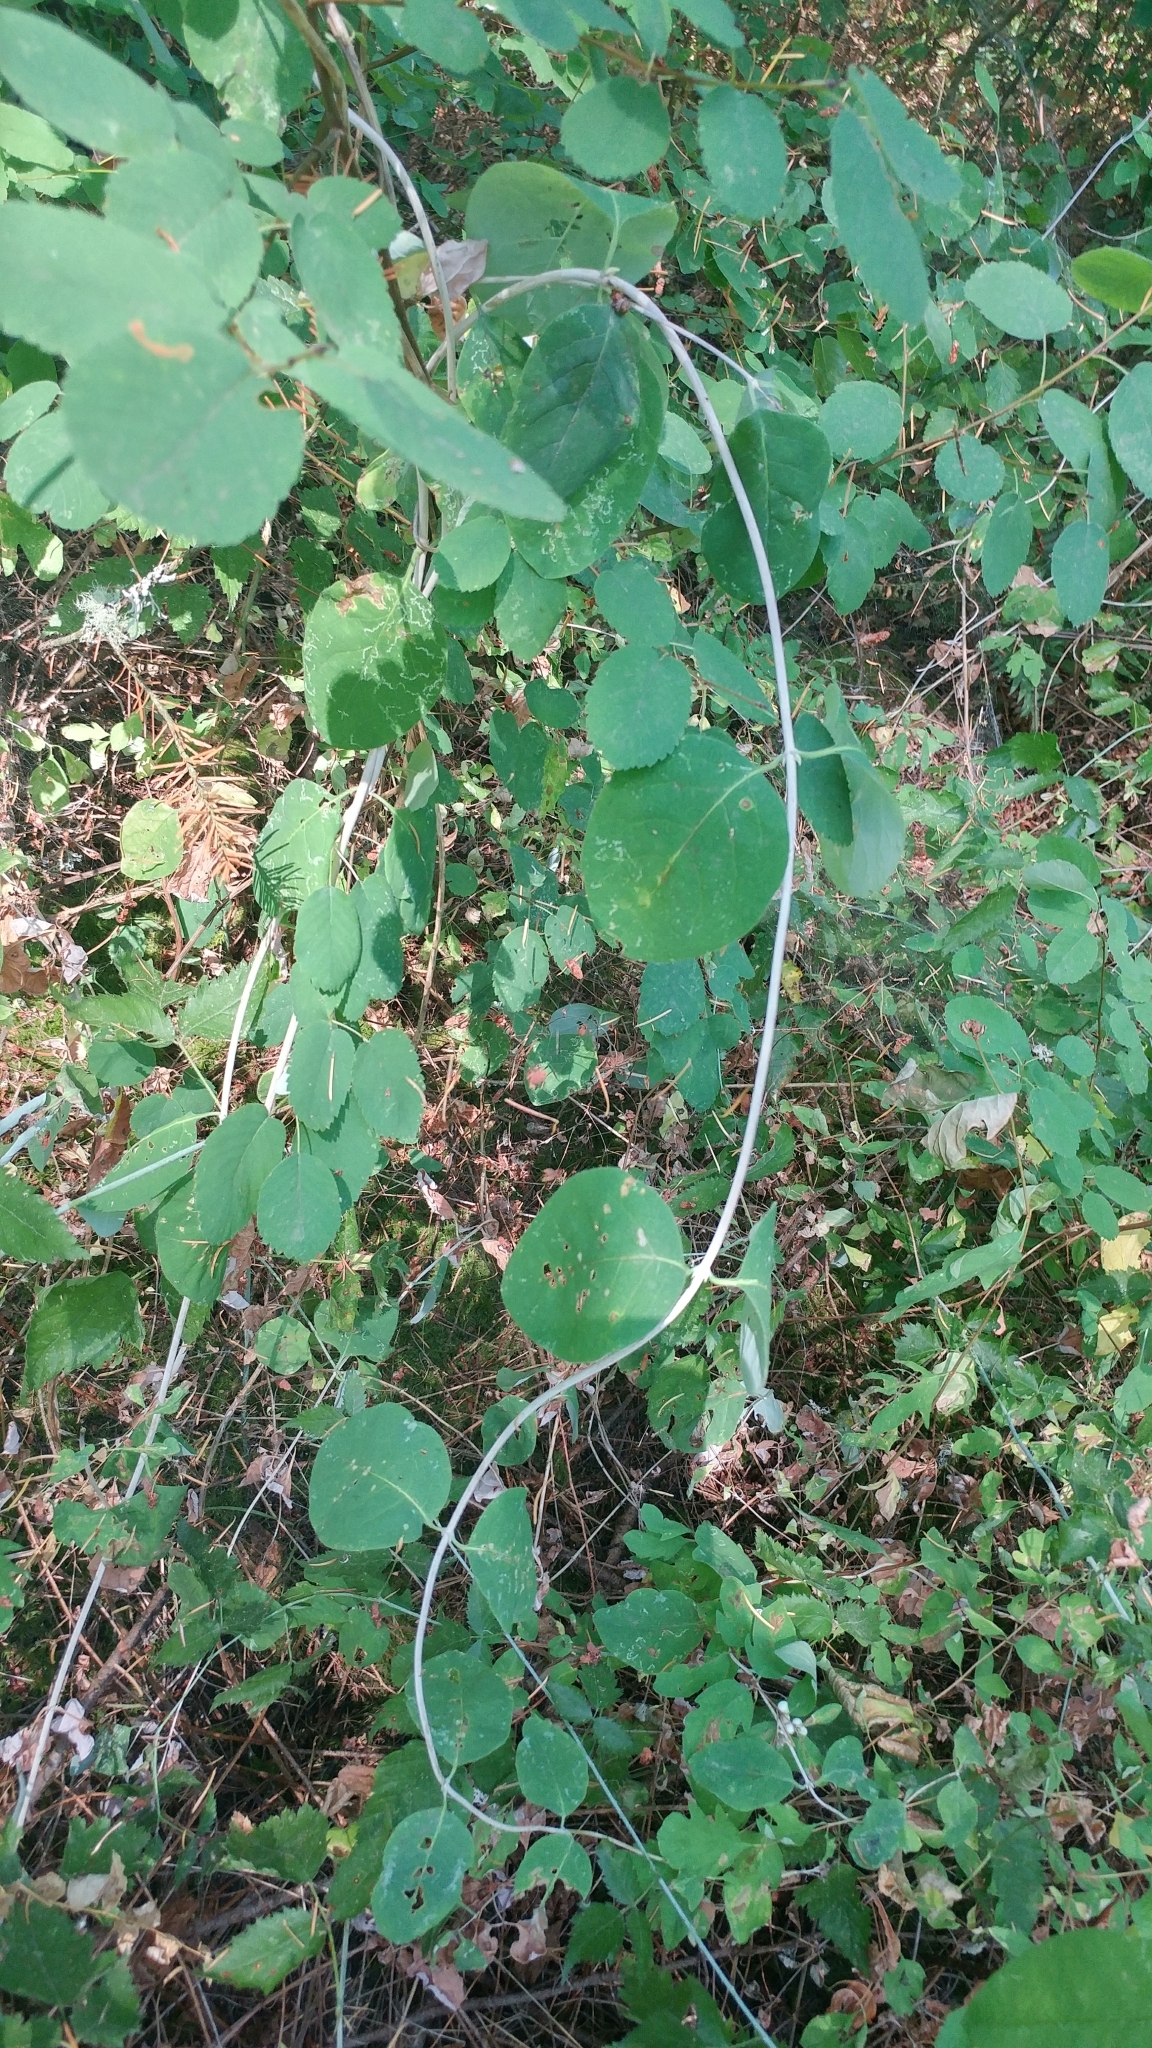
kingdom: Plantae
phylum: Tracheophyta
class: Magnoliopsida
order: Dipsacales
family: Caprifoliaceae
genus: Lonicera
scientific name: Lonicera ciliosa
